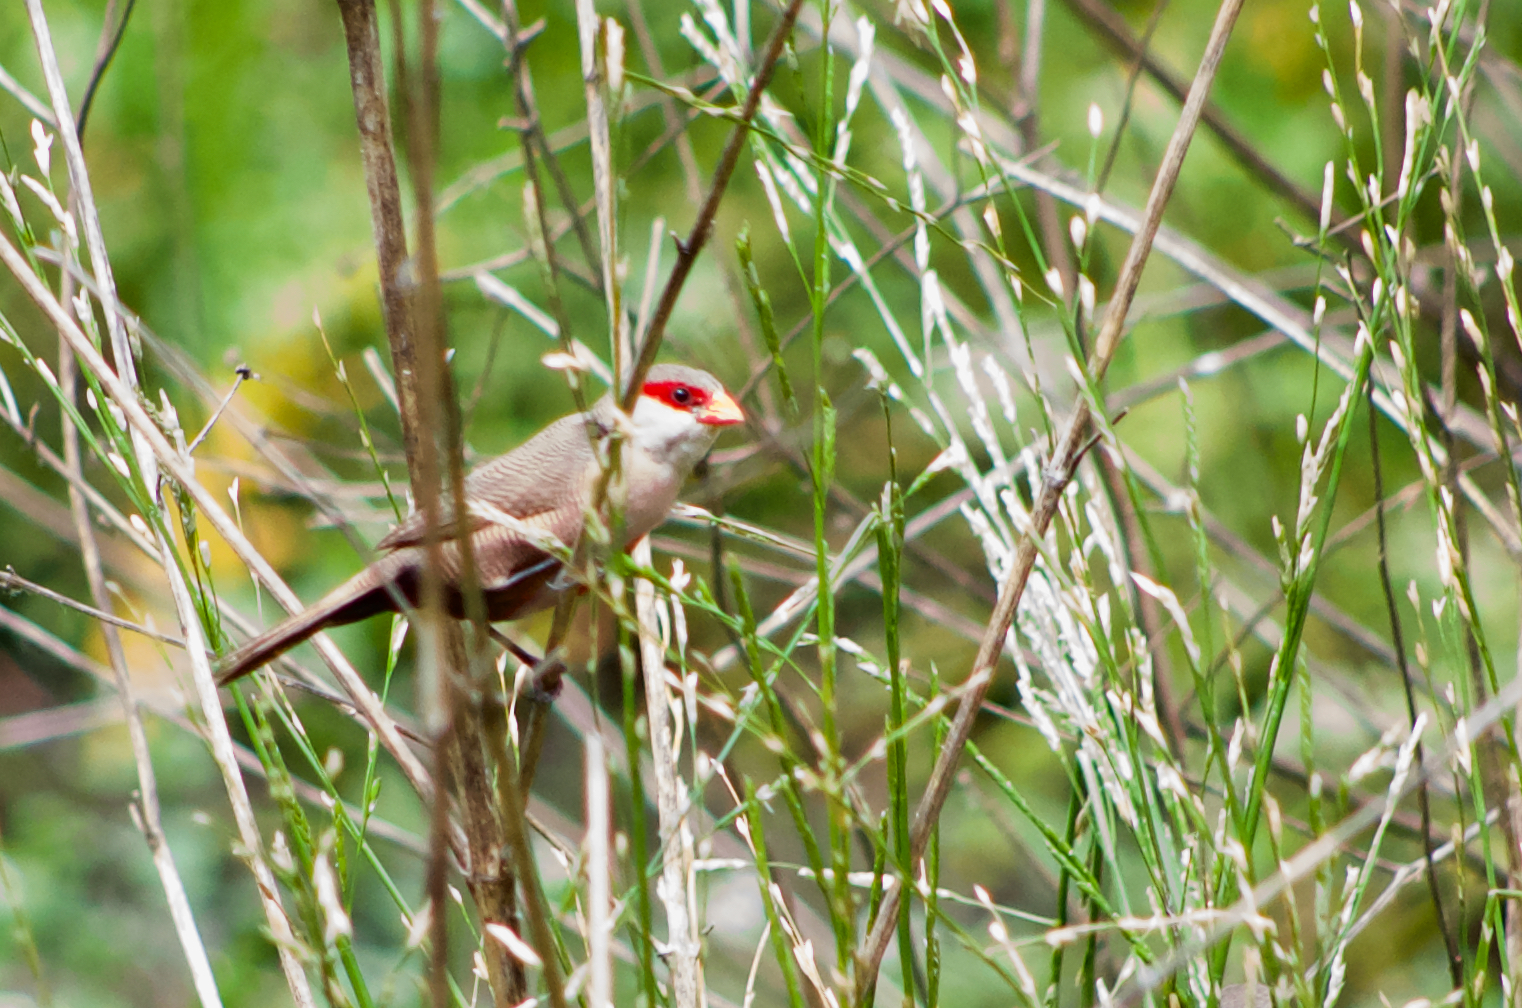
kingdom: Animalia
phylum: Chordata
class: Aves
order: Passeriformes
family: Estrildidae
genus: Estrilda
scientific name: Estrilda astrild
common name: Common waxbill
